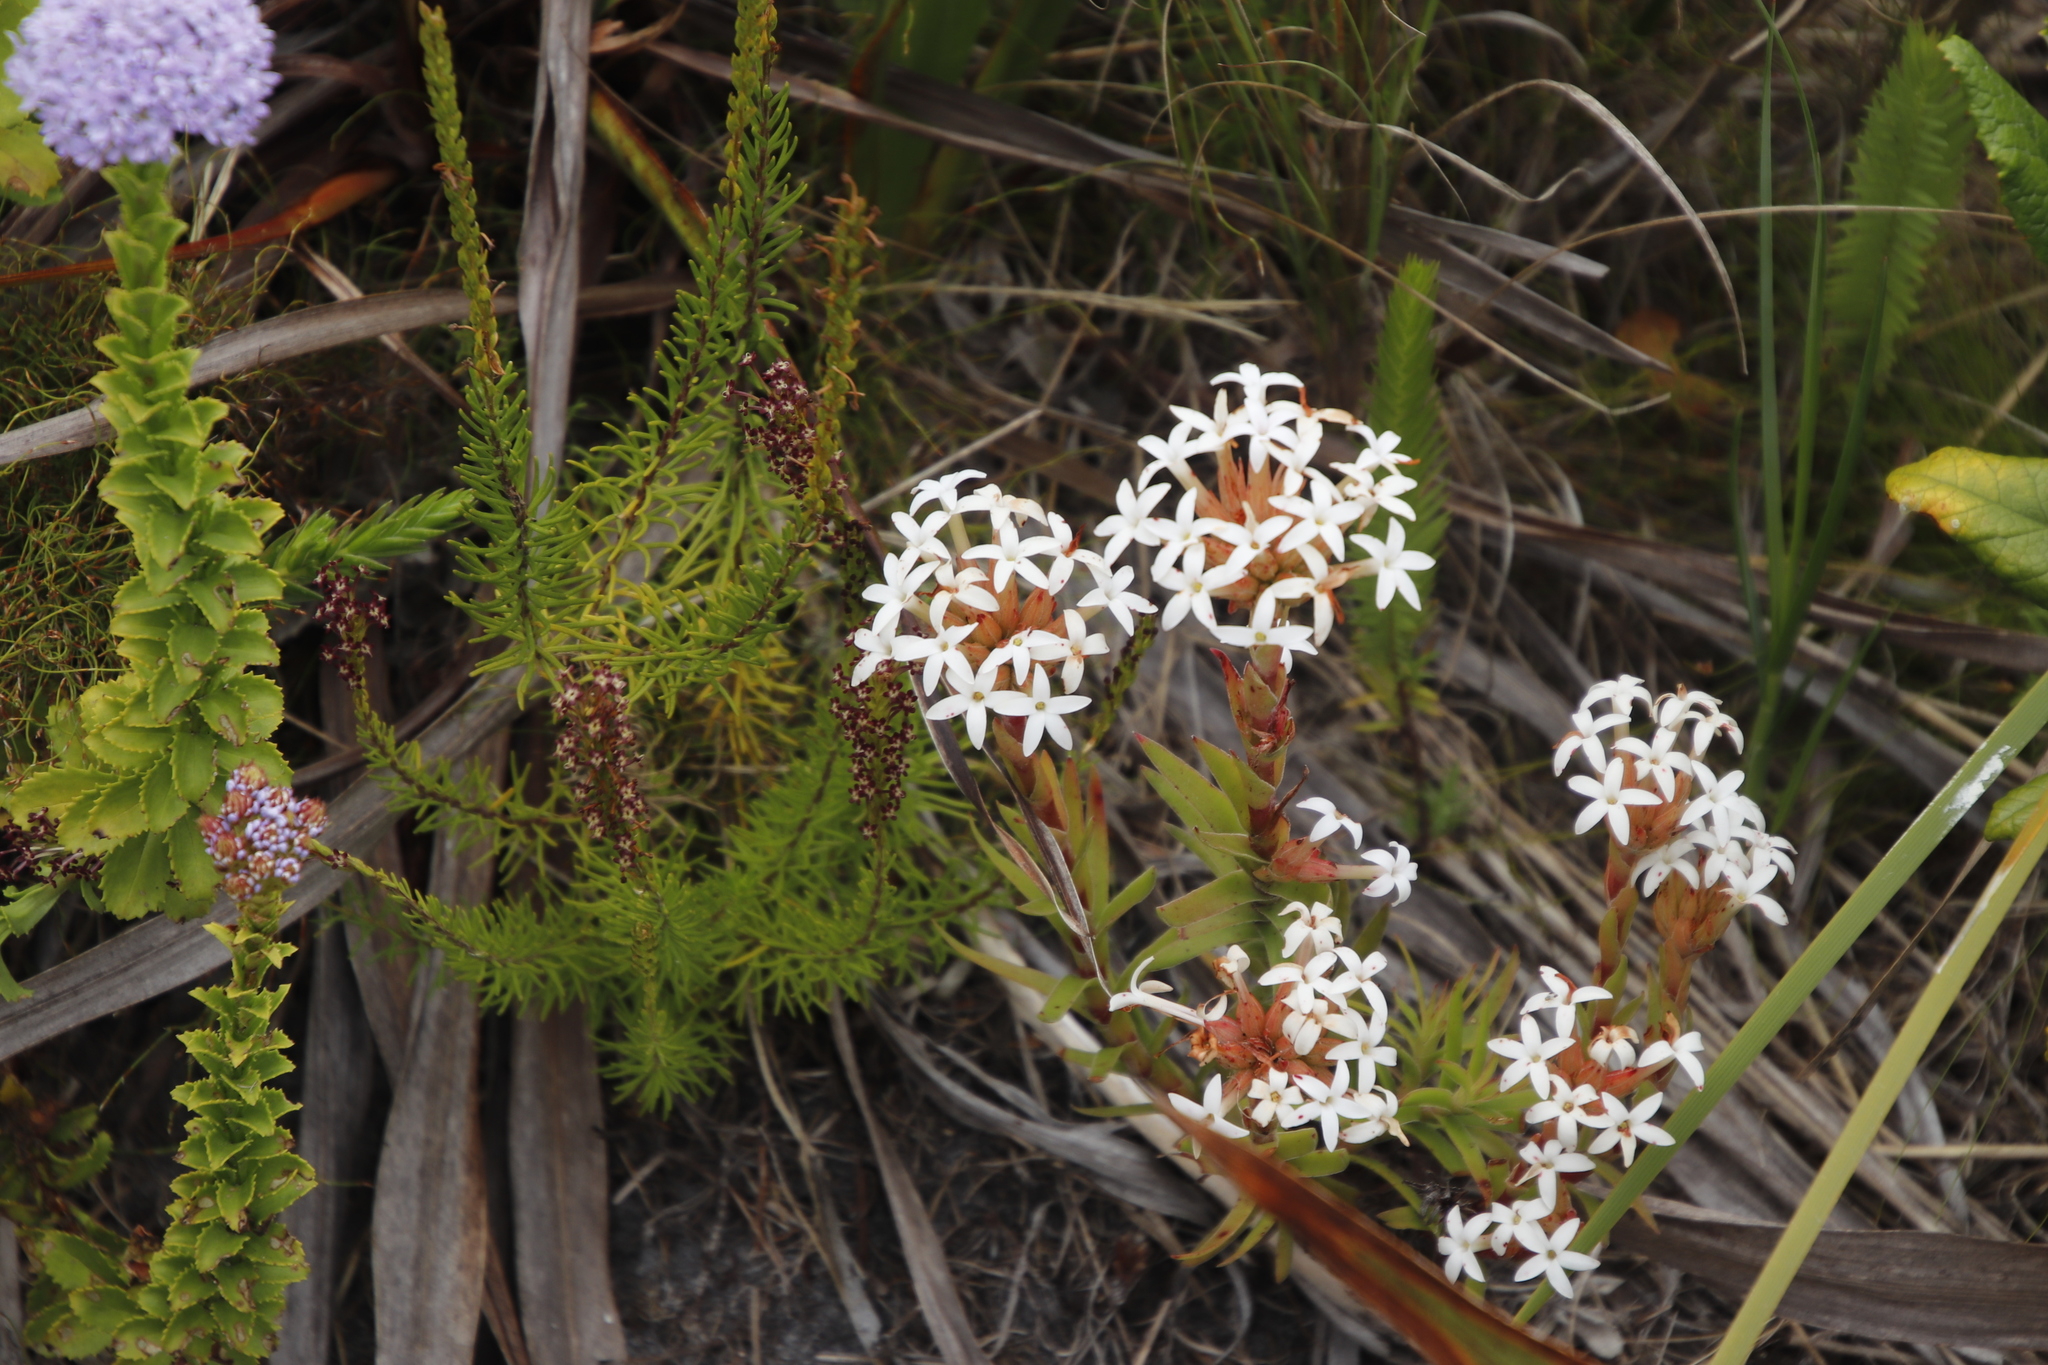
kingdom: Plantae
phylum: Tracheophyta
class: Magnoliopsida
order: Saxifragales
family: Crassulaceae
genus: Crassula
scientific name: Crassula fascicularis
